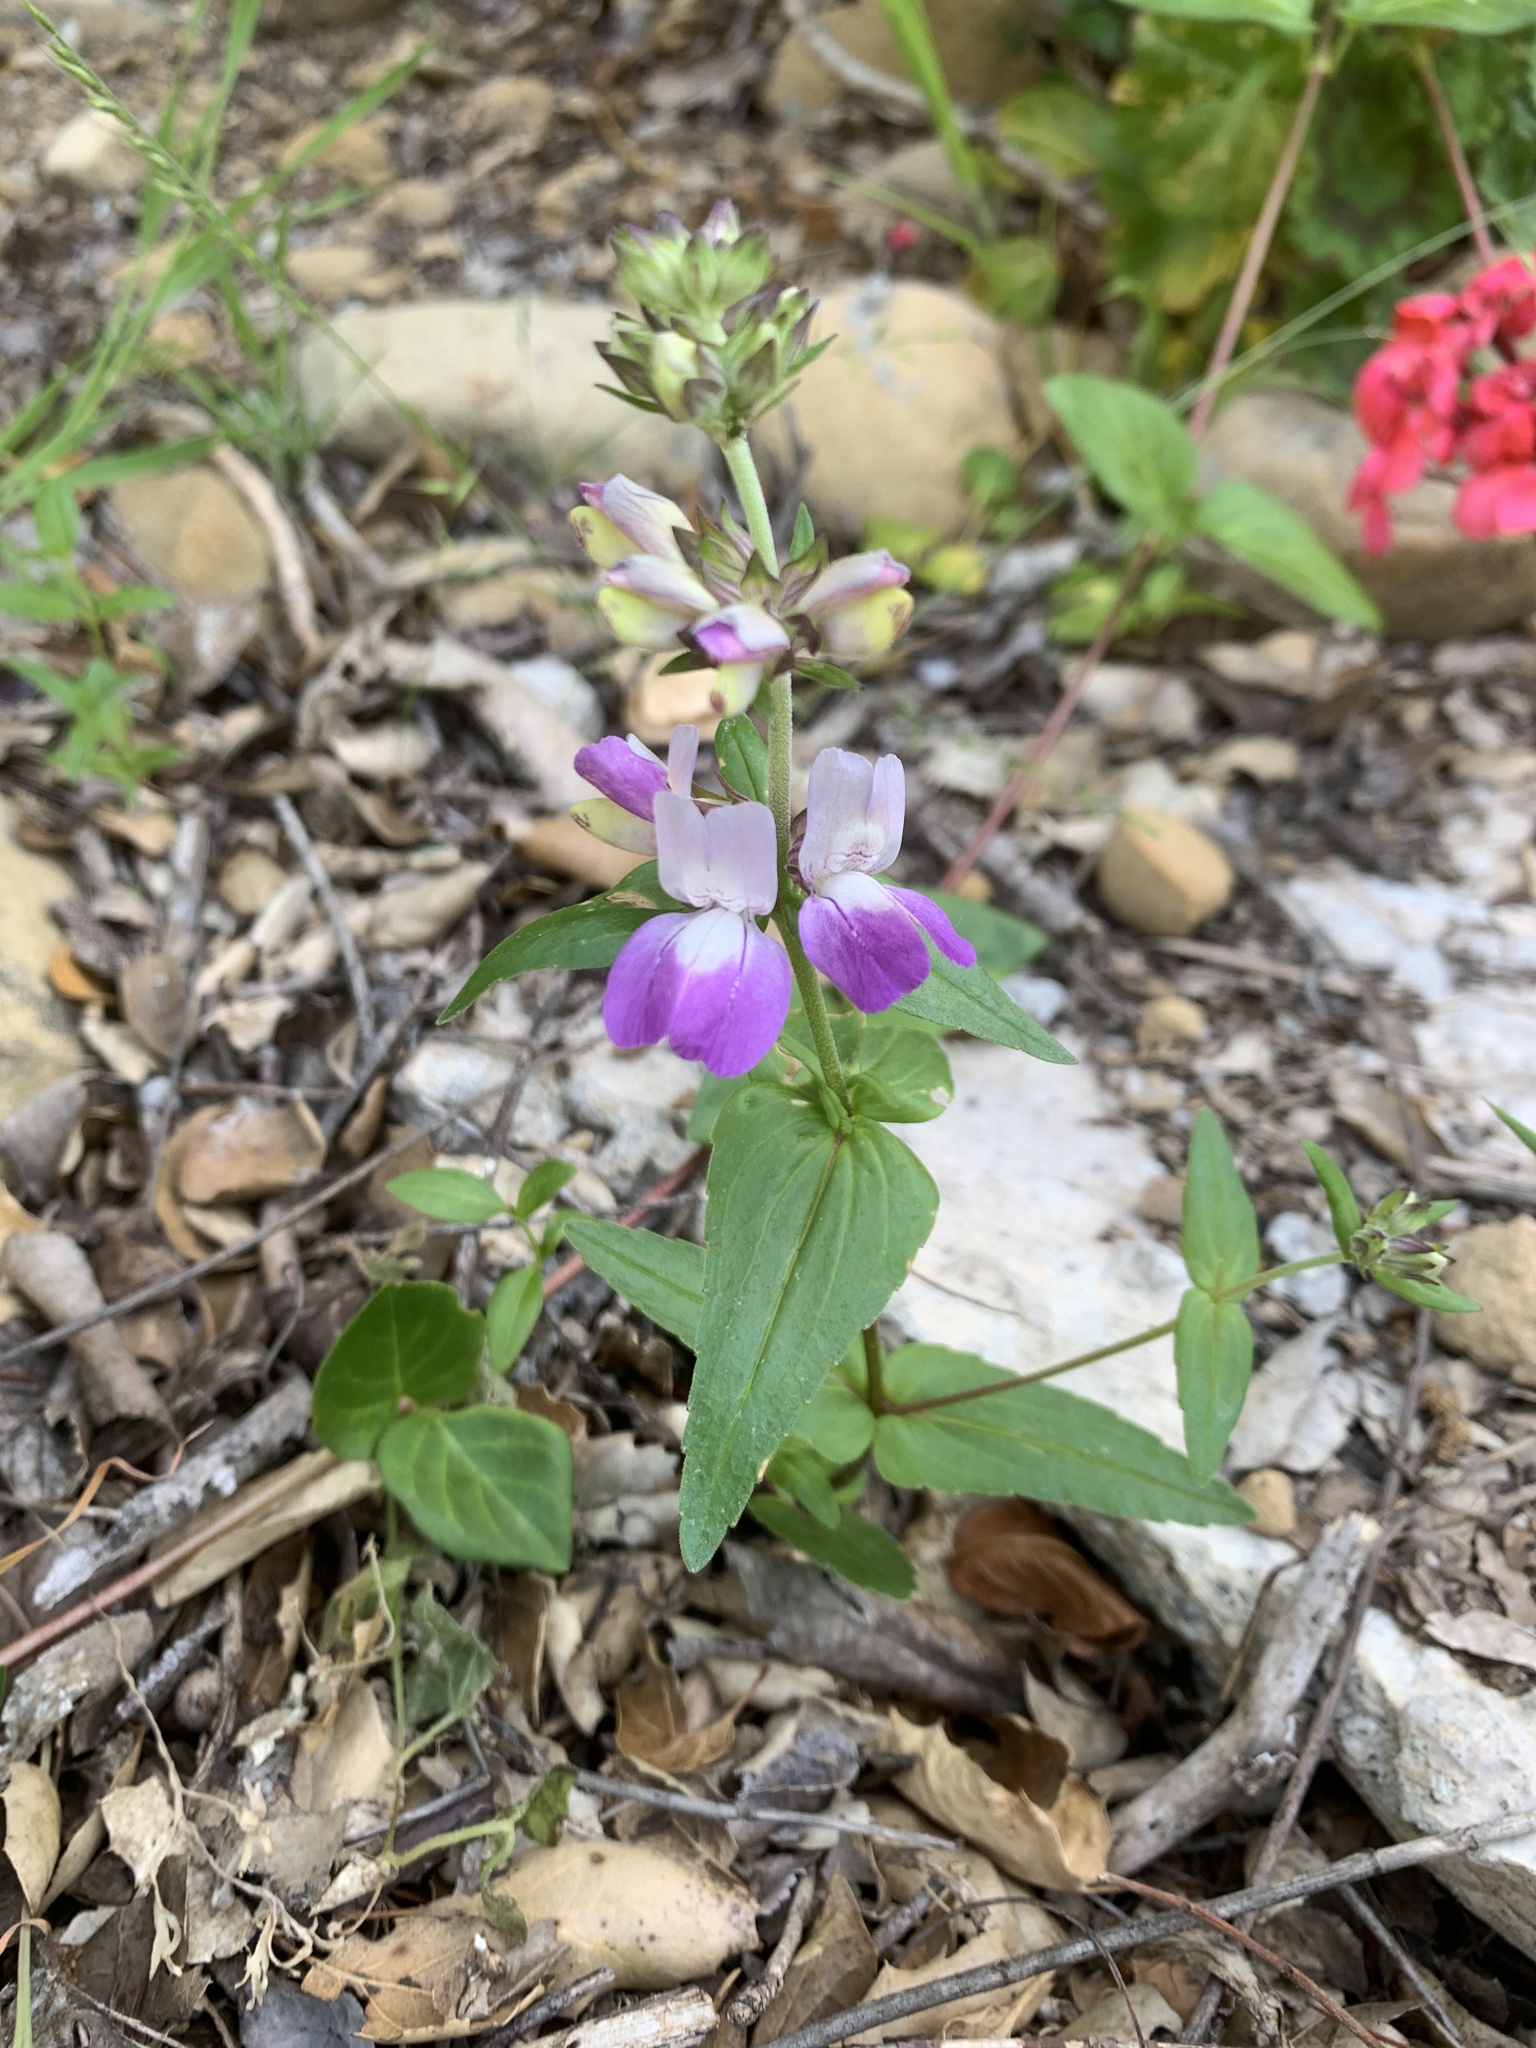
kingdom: Plantae
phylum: Tracheophyta
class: Magnoliopsida
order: Lamiales
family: Plantaginaceae
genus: Collinsia
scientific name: Collinsia heterophylla
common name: Chinese-houses
